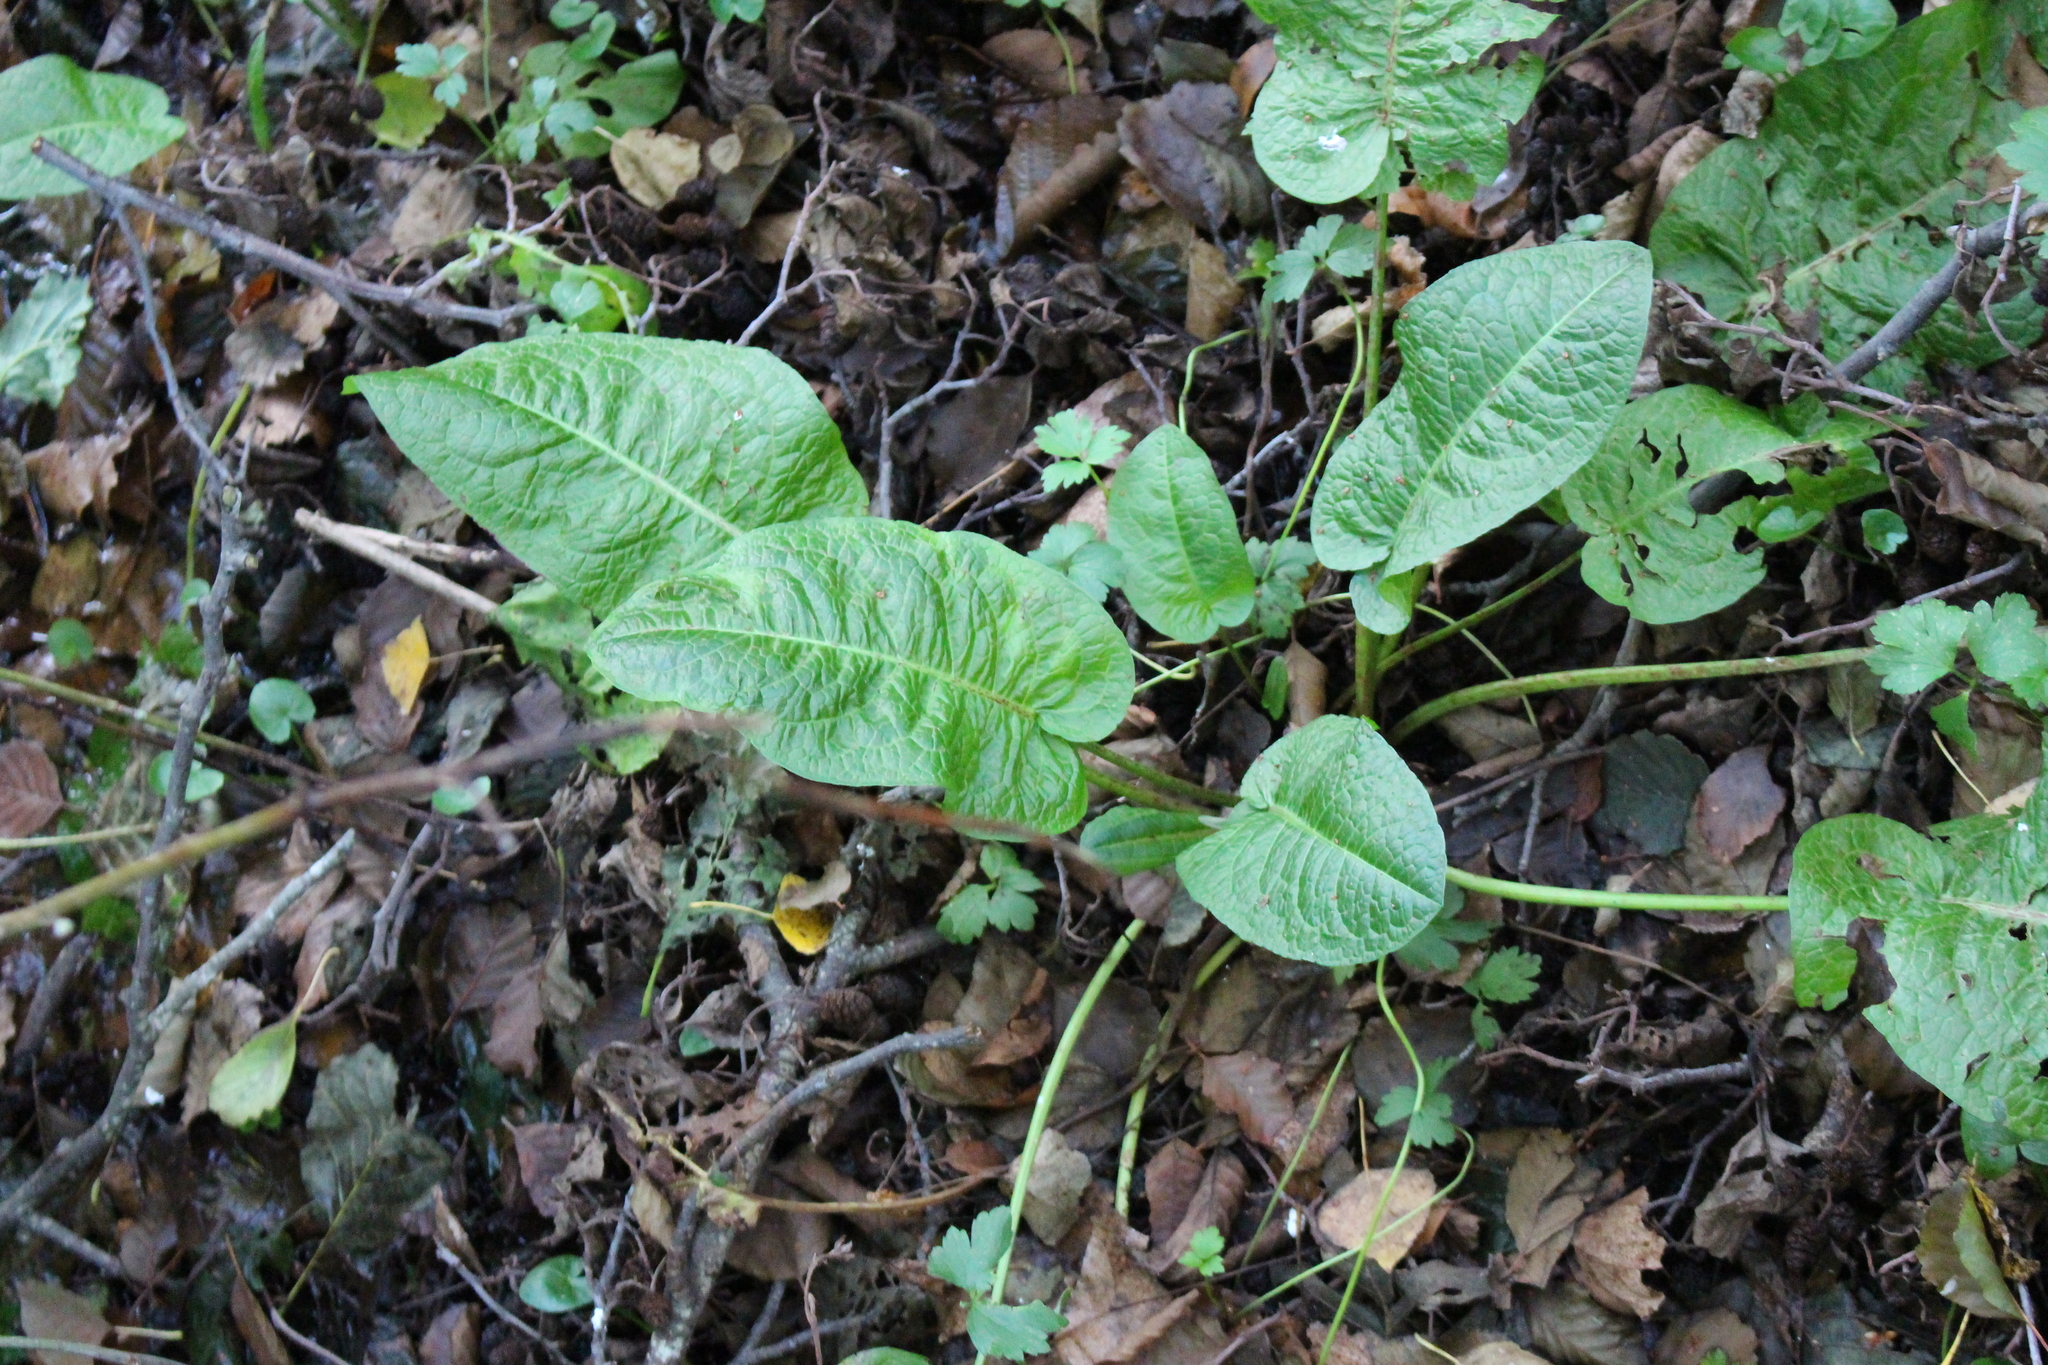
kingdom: Plantae
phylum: Tracheophyta
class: Magnoliopsida
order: Caryophyllales
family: Polygonaceae
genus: Rumex
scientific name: Rumex obtusifolius
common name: Bitter dock
